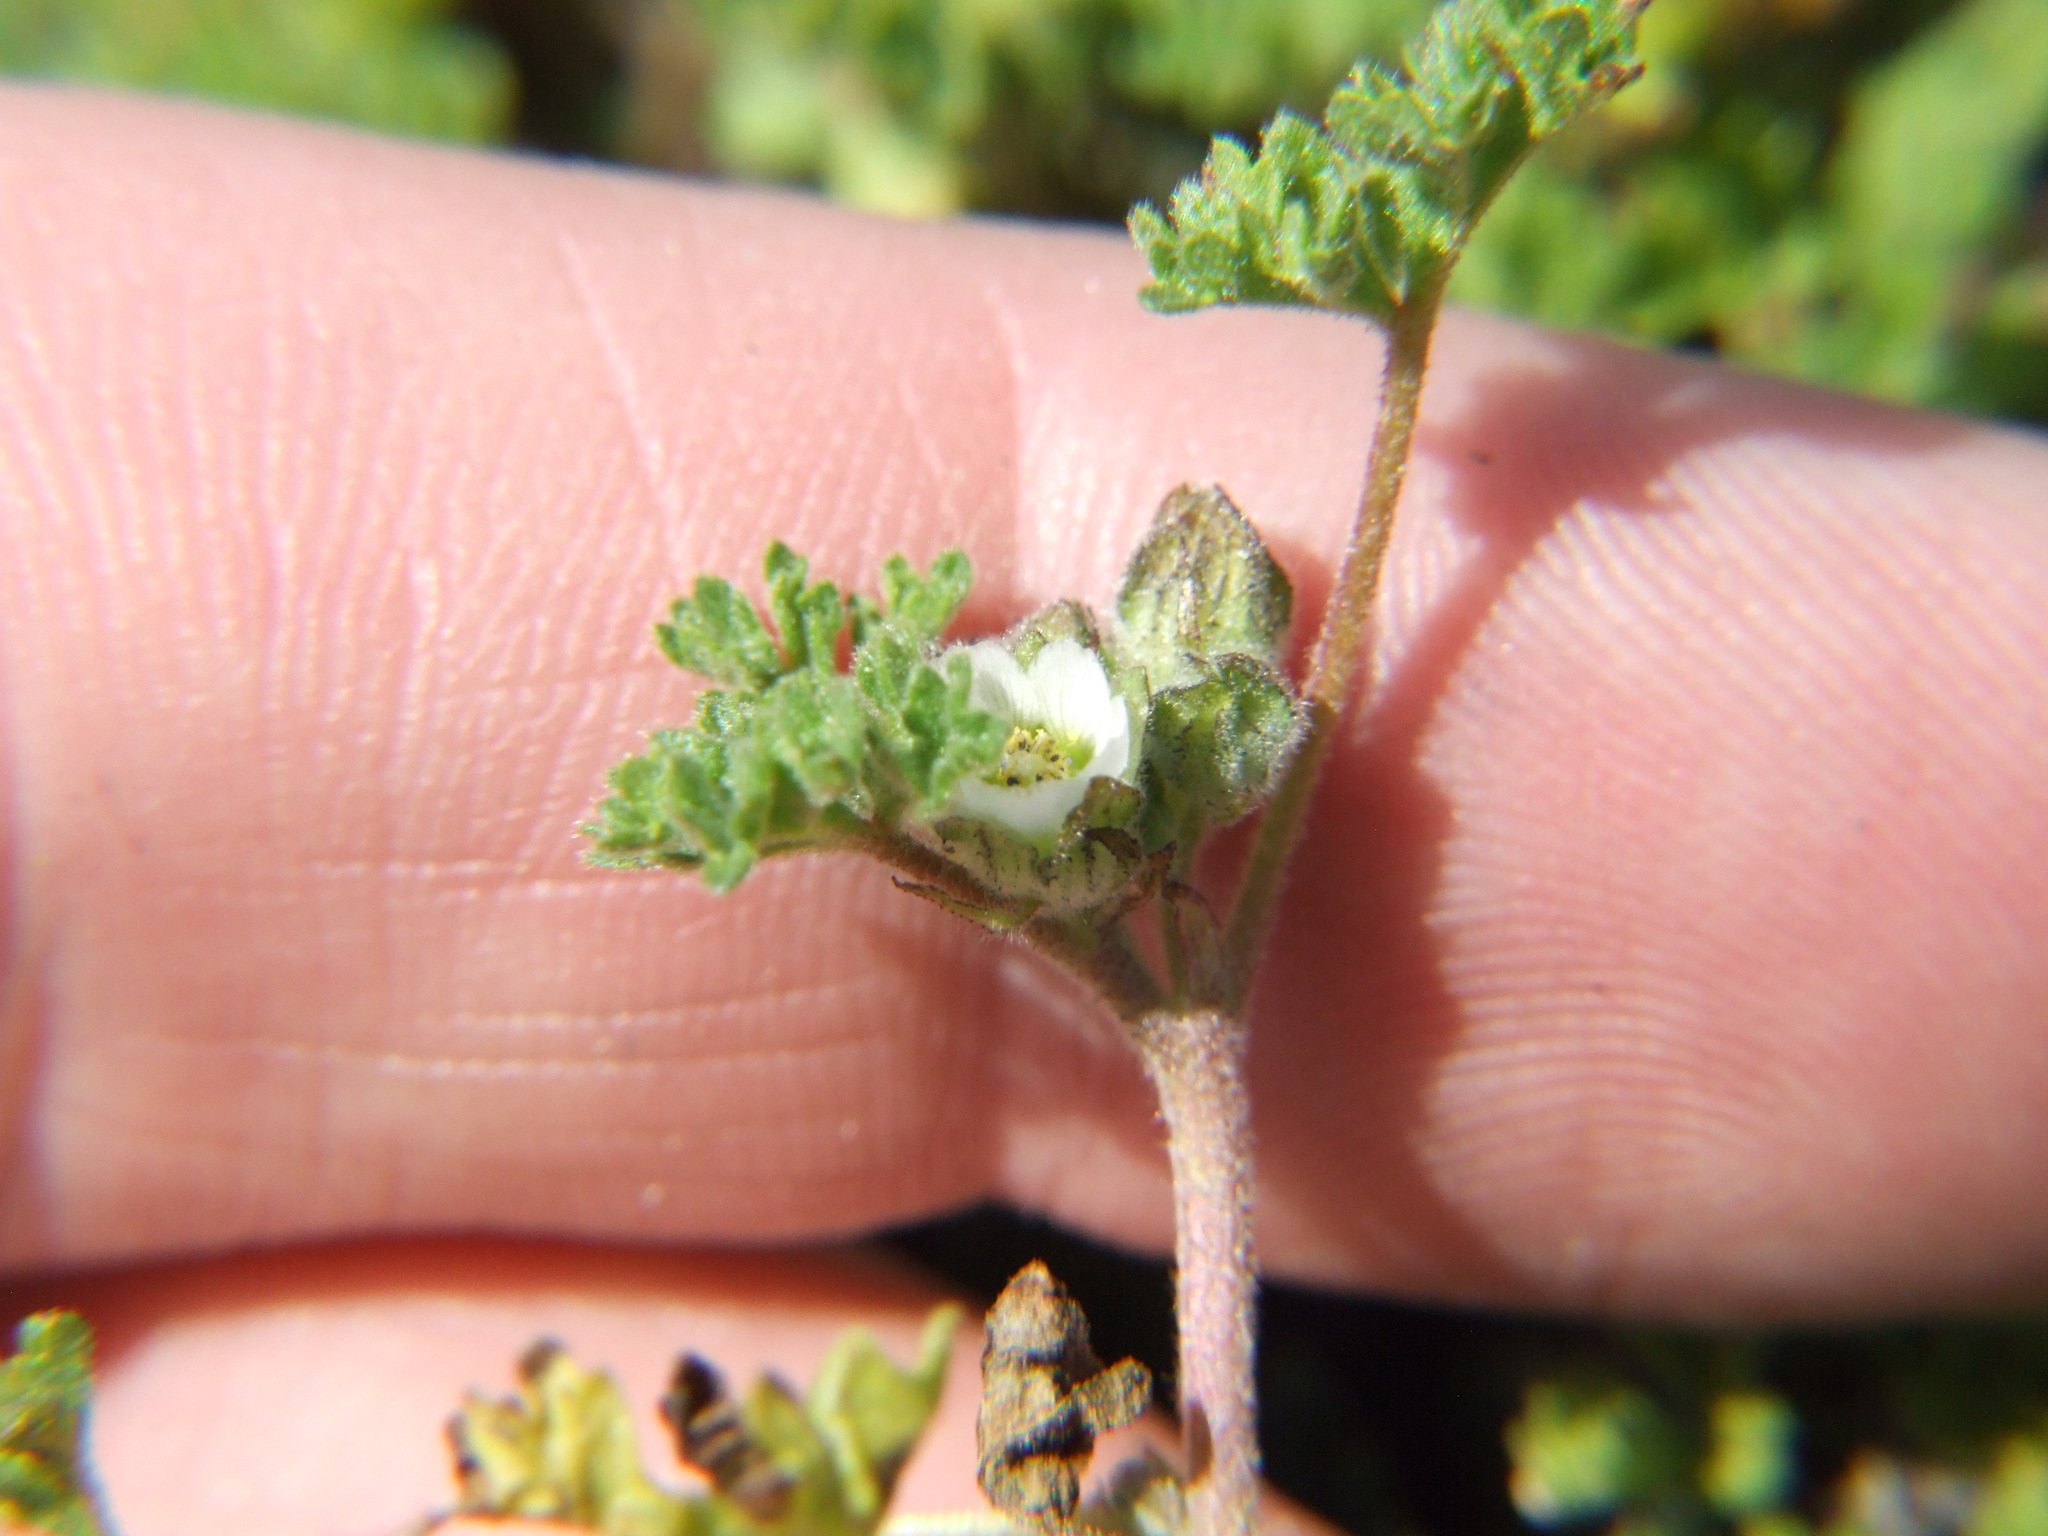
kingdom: Plantae
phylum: Tracheophyta
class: Magnoliopsida
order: Malvales
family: Malvaceae
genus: Tarasa
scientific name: Tarasa nototrichoides
